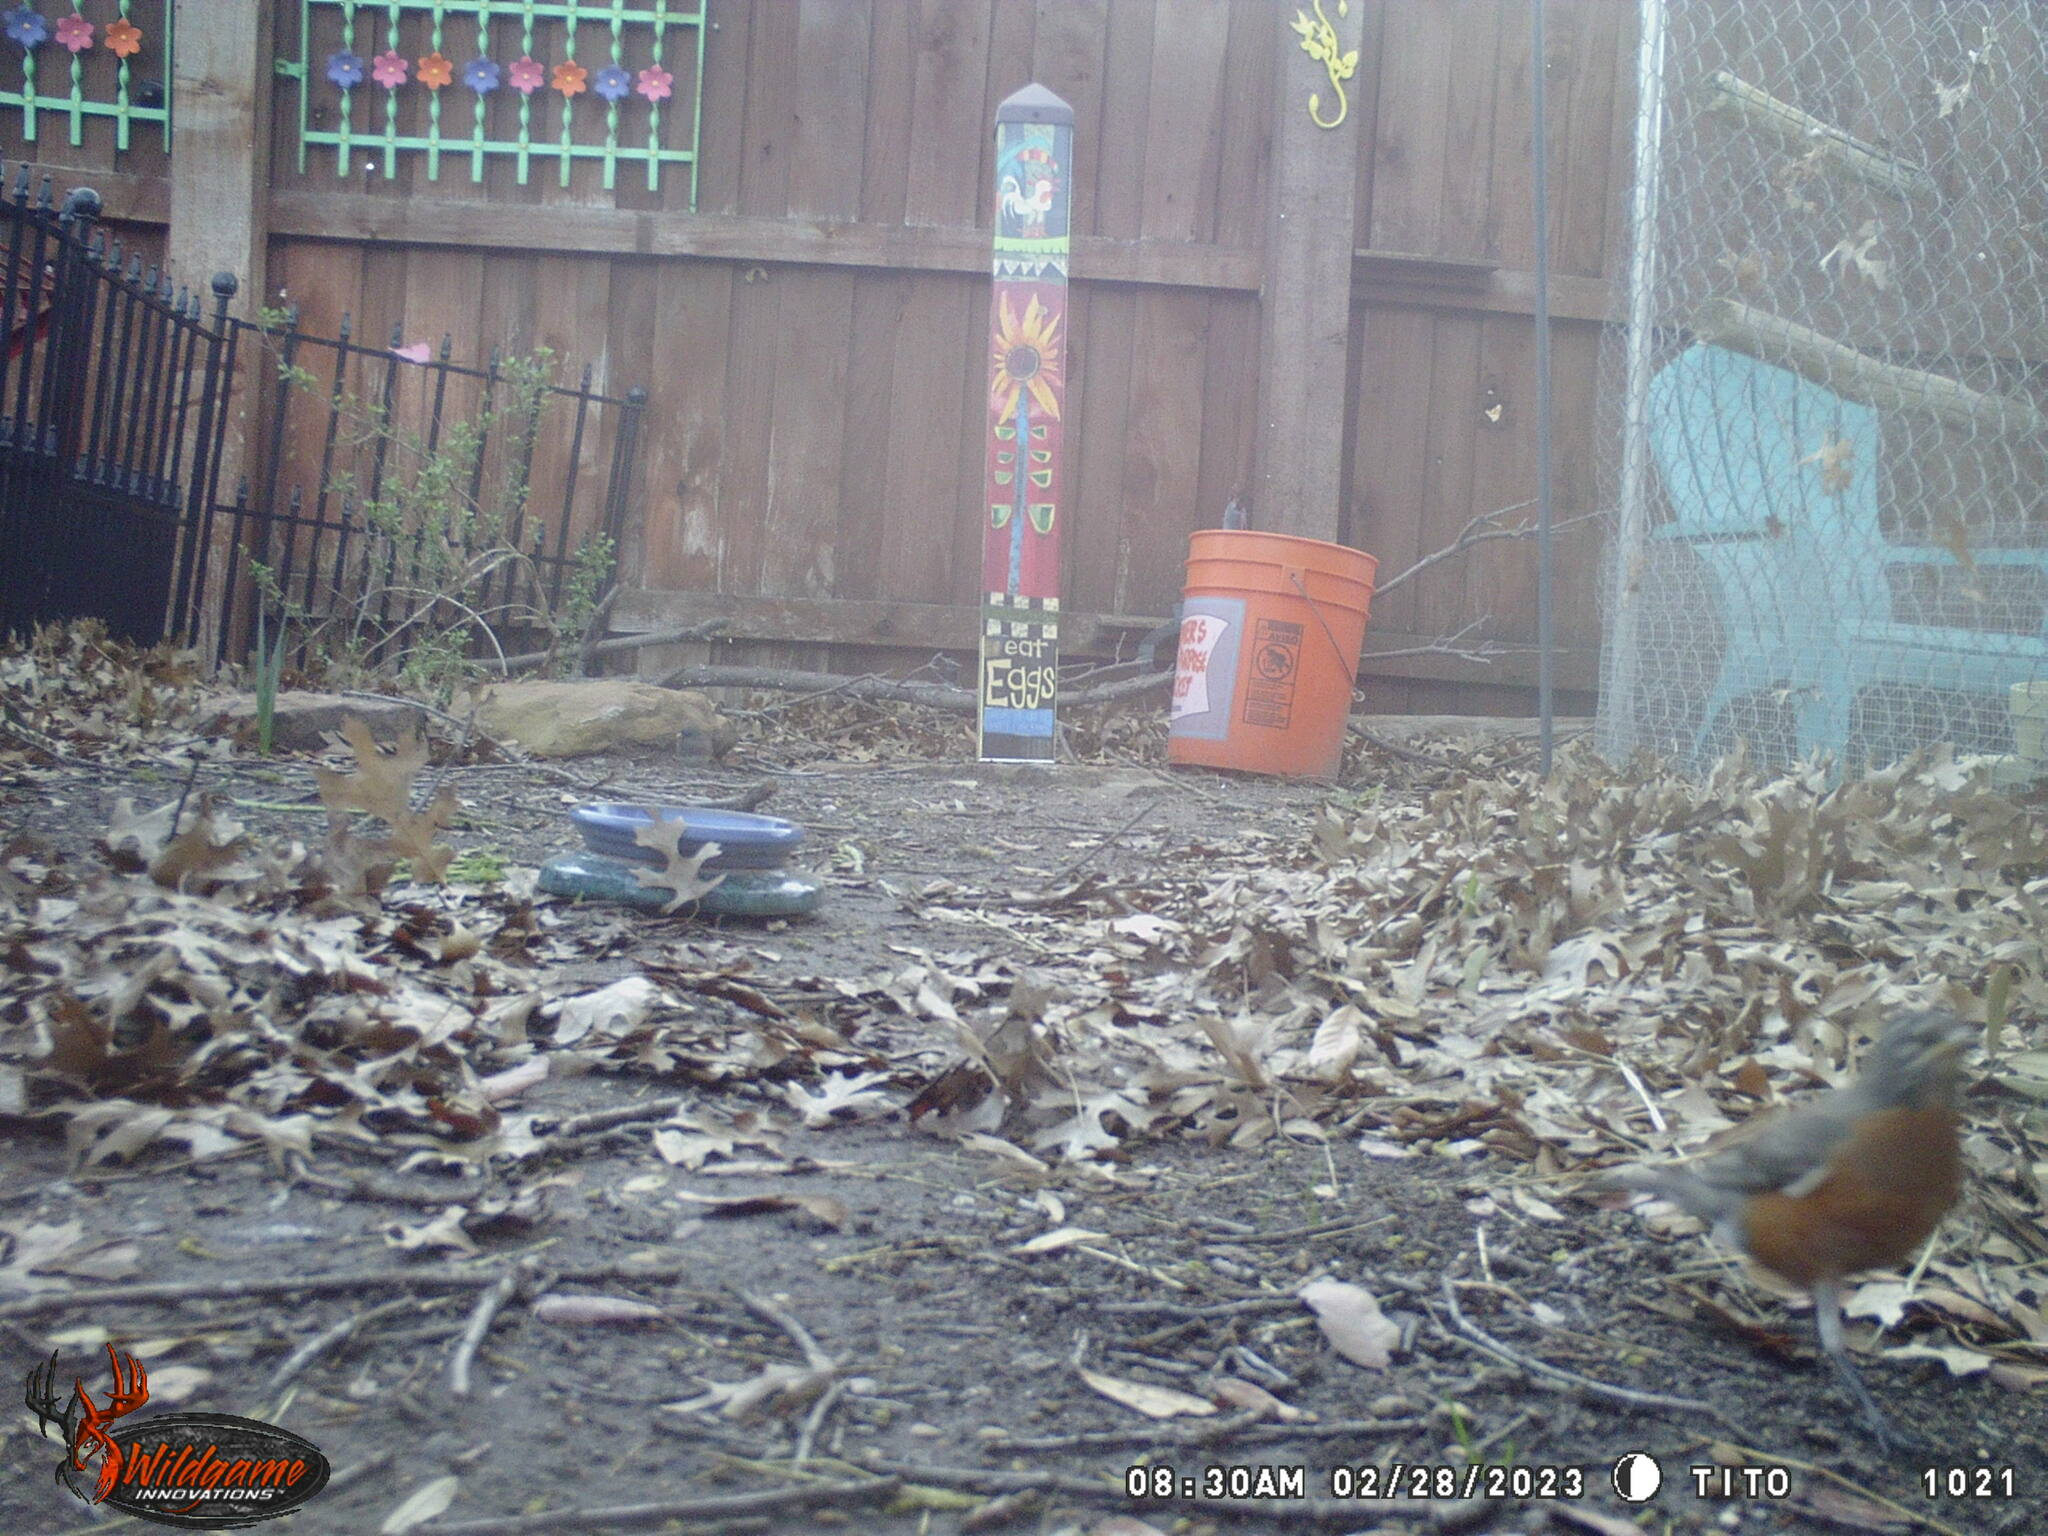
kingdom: Animalia
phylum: Chordata
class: Aves
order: Passeriformes
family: Turdidae
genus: Turdus
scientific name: Turdus migratorius
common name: American robin
